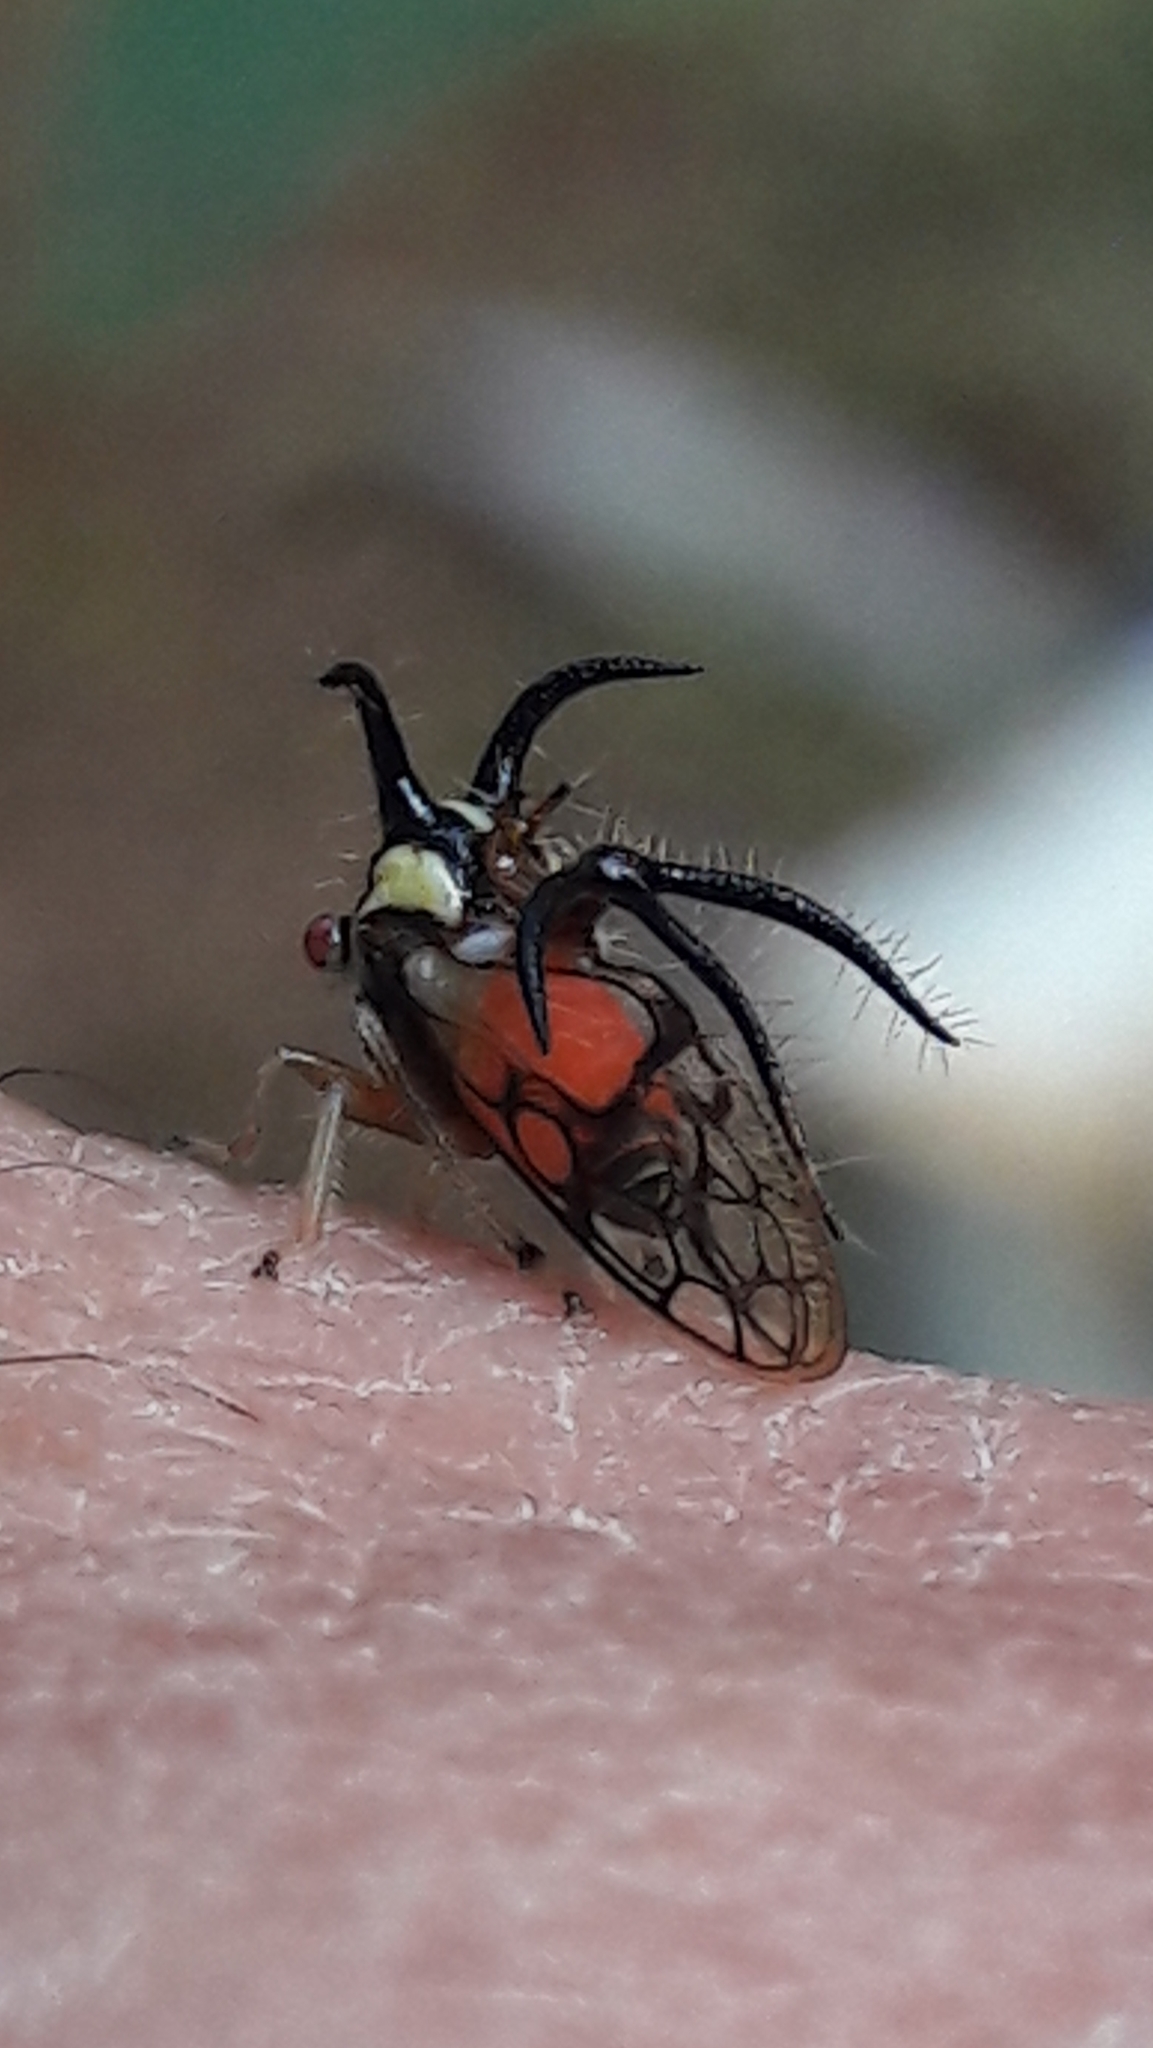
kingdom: Animalia
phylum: Arthropoda
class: Insecta
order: Hemiptera
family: Membracidae
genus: Cyphonia
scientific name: Cyphonia trifida
